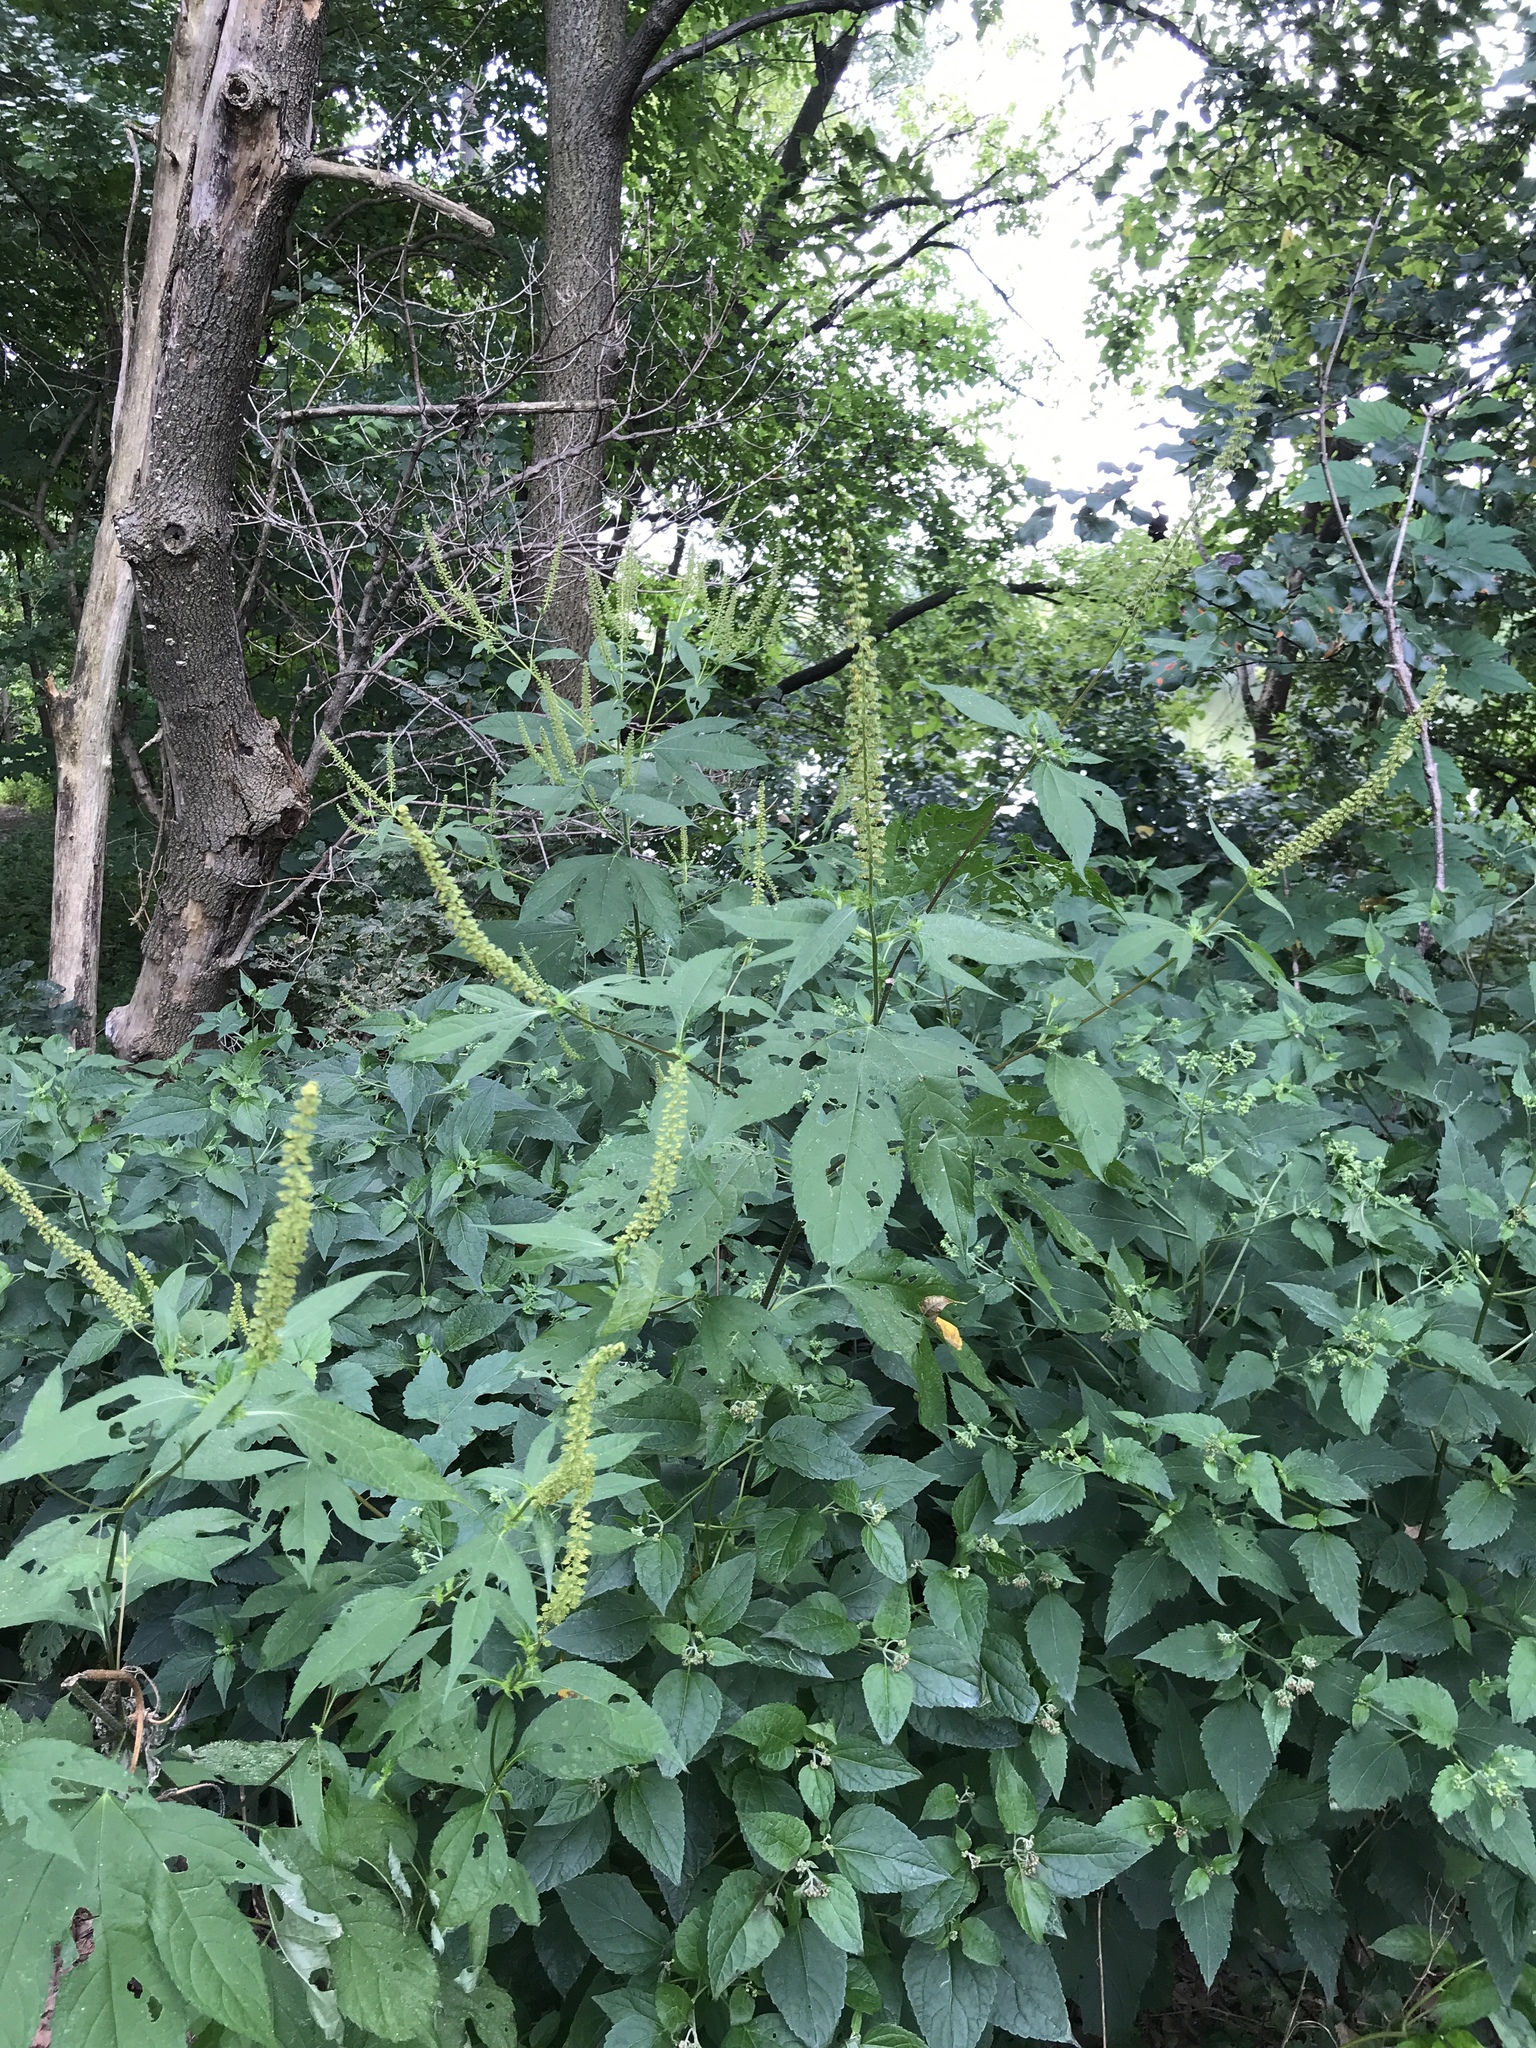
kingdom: Plantae
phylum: Tracheophyta
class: Magnoliopsida
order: Asterales
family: Asteraceae
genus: Ambrosia
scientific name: Ambrosia trifida
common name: Giant ragweed
